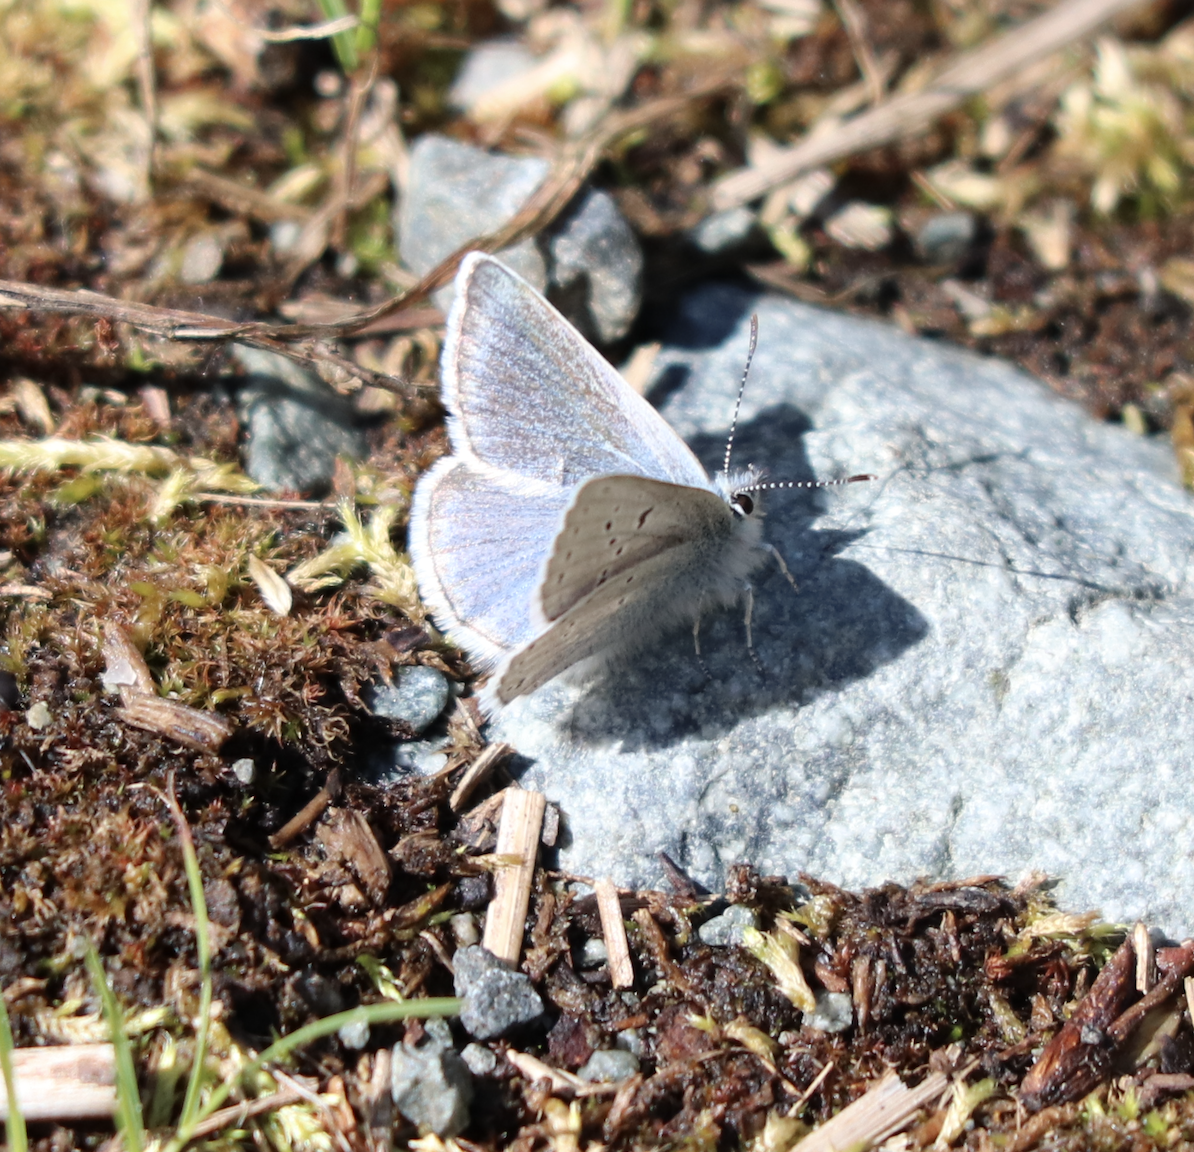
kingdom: Animalia
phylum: Arthropoda
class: Insecta
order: Lepidoptera
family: Lycaenidae
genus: Icaricia
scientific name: Icaricia saepiolus
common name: Greenish blue
